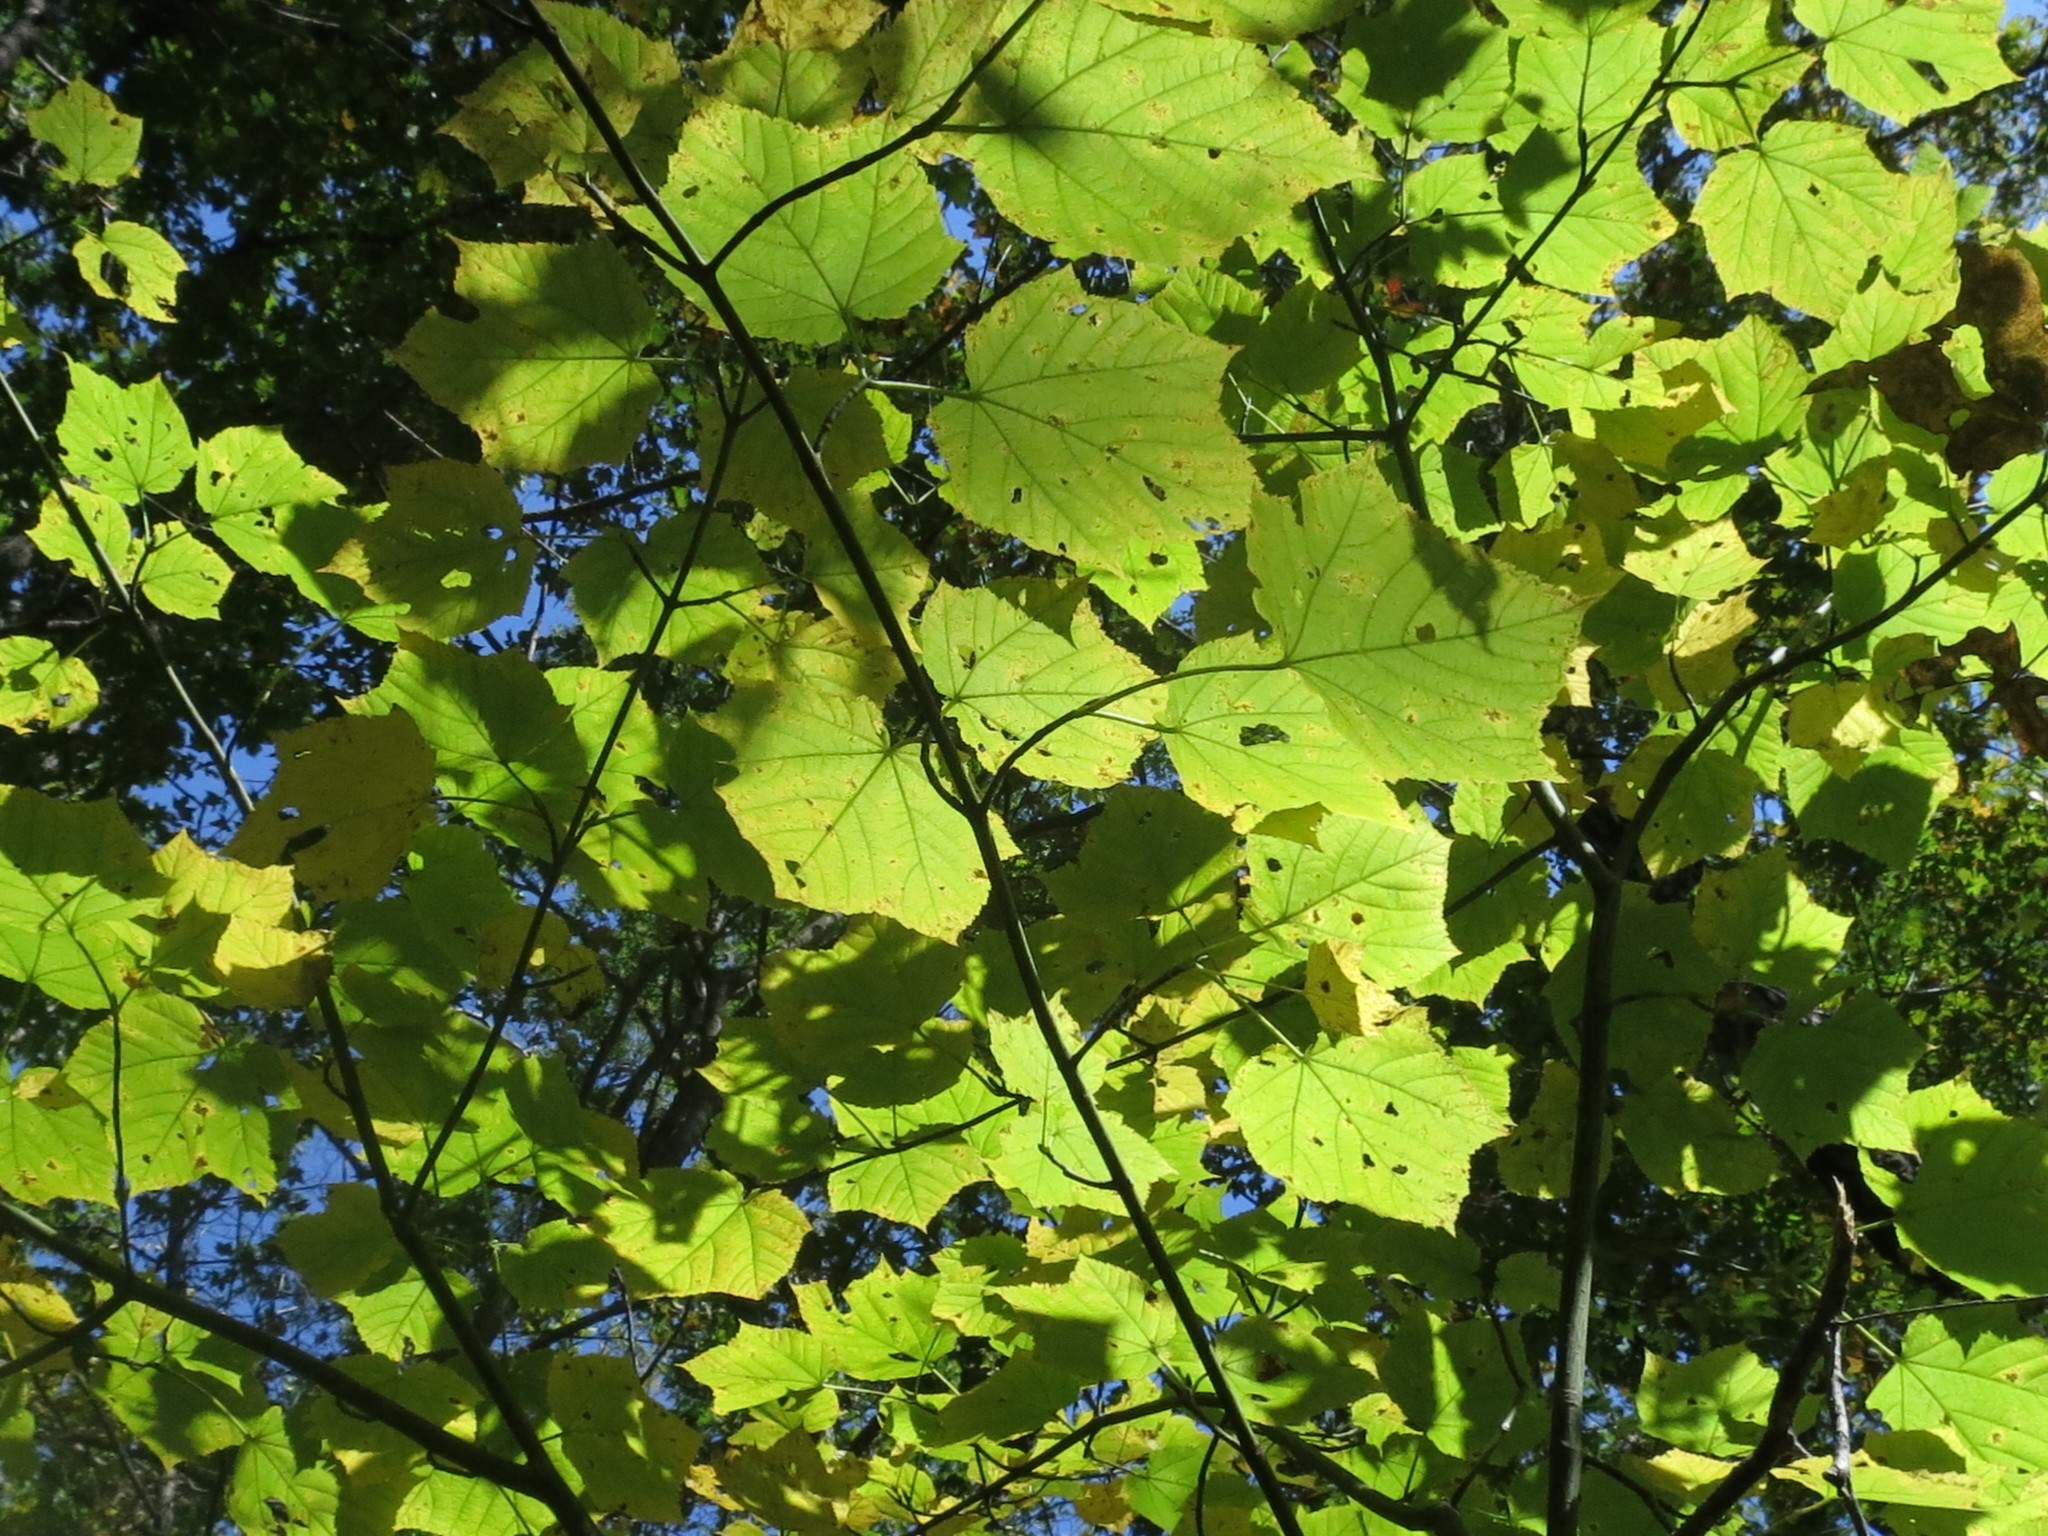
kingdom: Plantae
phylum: Tracheophyta
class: Magnoliopsida
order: Sapindales
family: Sapindaceae
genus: Acer
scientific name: Acer tegmentosum
